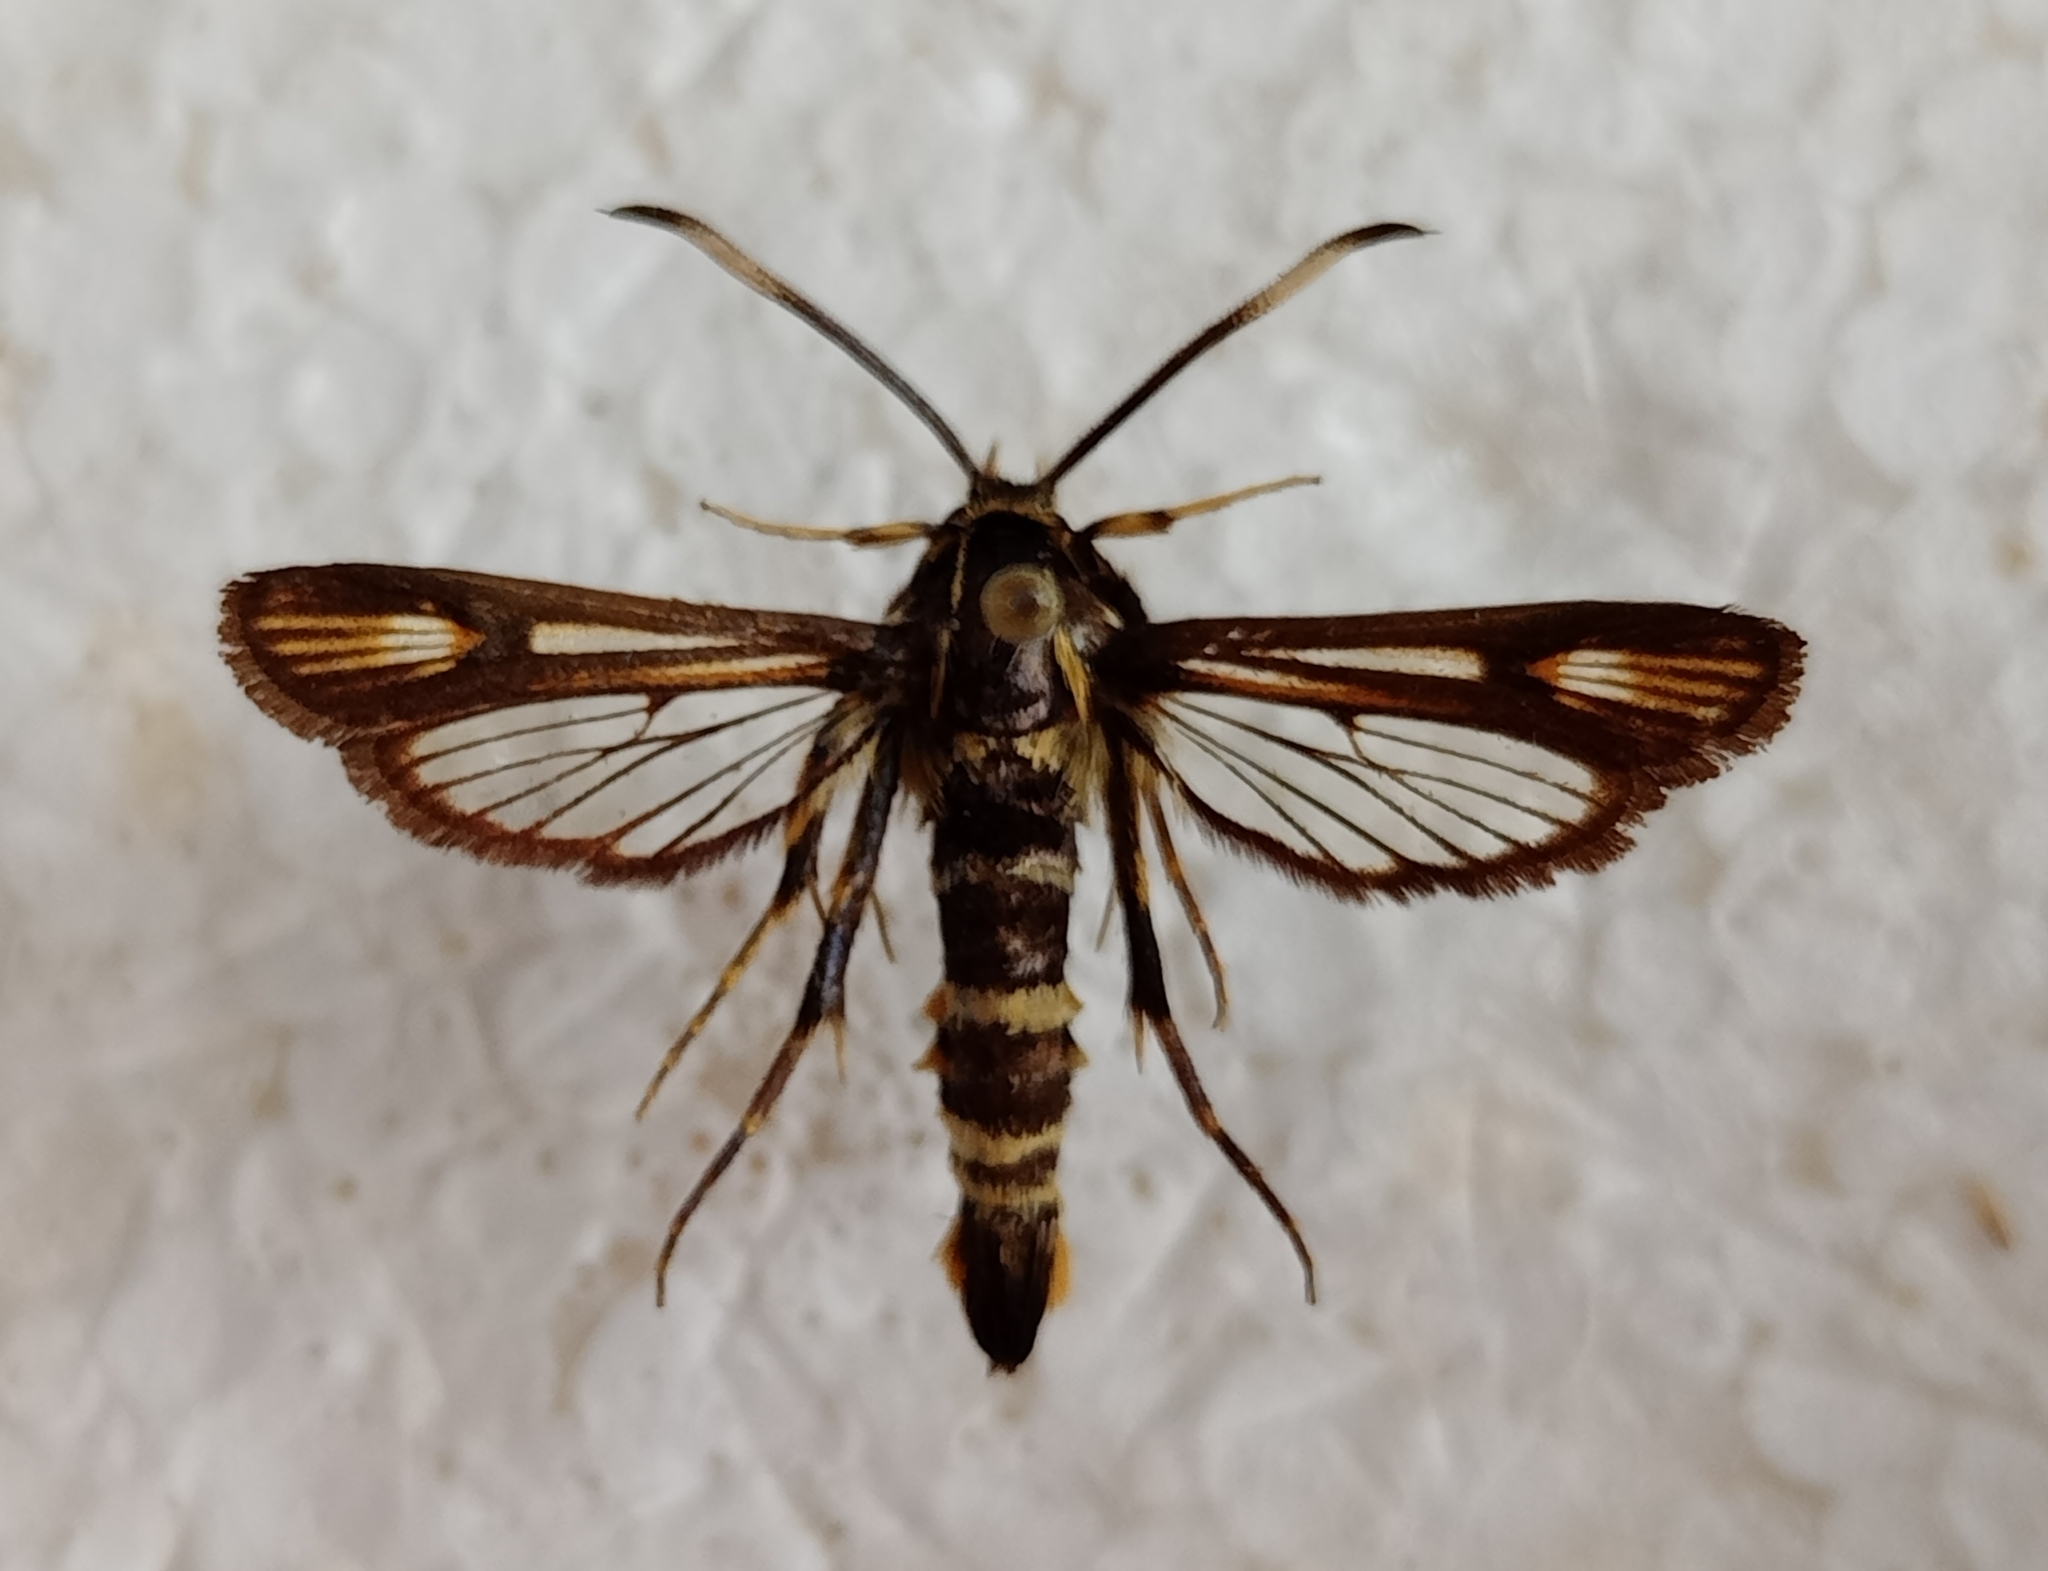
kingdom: Animalia
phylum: Arthropoda
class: Insecta
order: Lepidoptera
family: Sesiidae
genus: Bembecia
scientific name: Bembecia pavicevici
